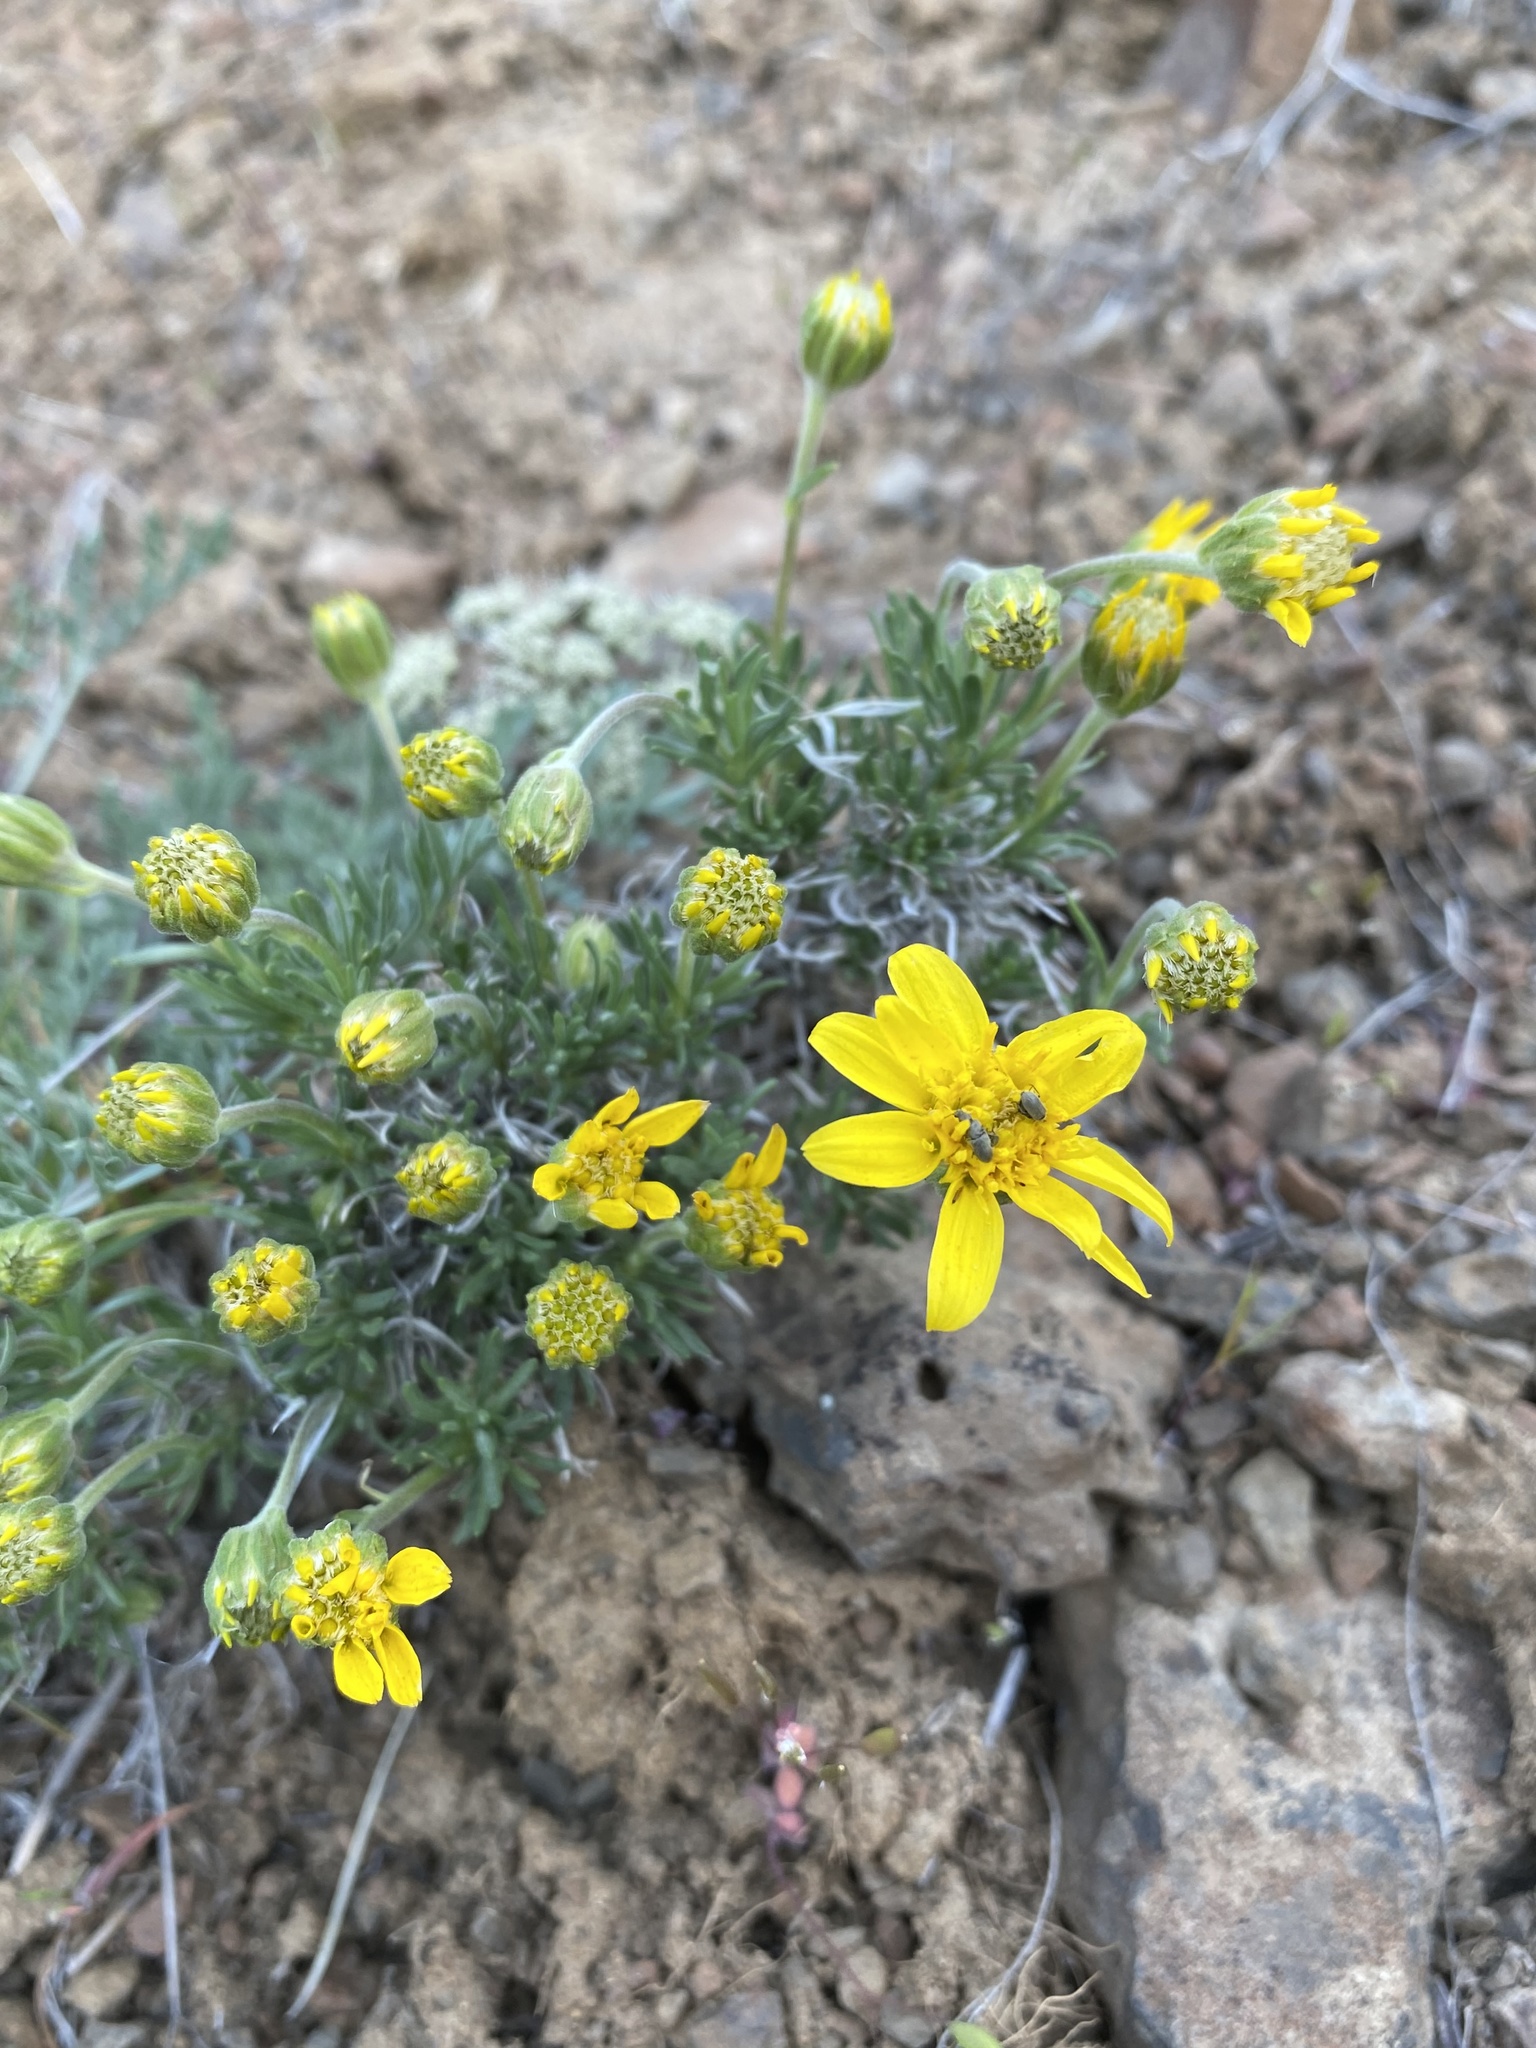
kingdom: Plantae
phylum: Tracheophyta
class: Magnoliopsida
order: Asterales
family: Asteraceae
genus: Nestotus
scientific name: Nestotus stenophyllus
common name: Narrow-leaf mock goldenweed
